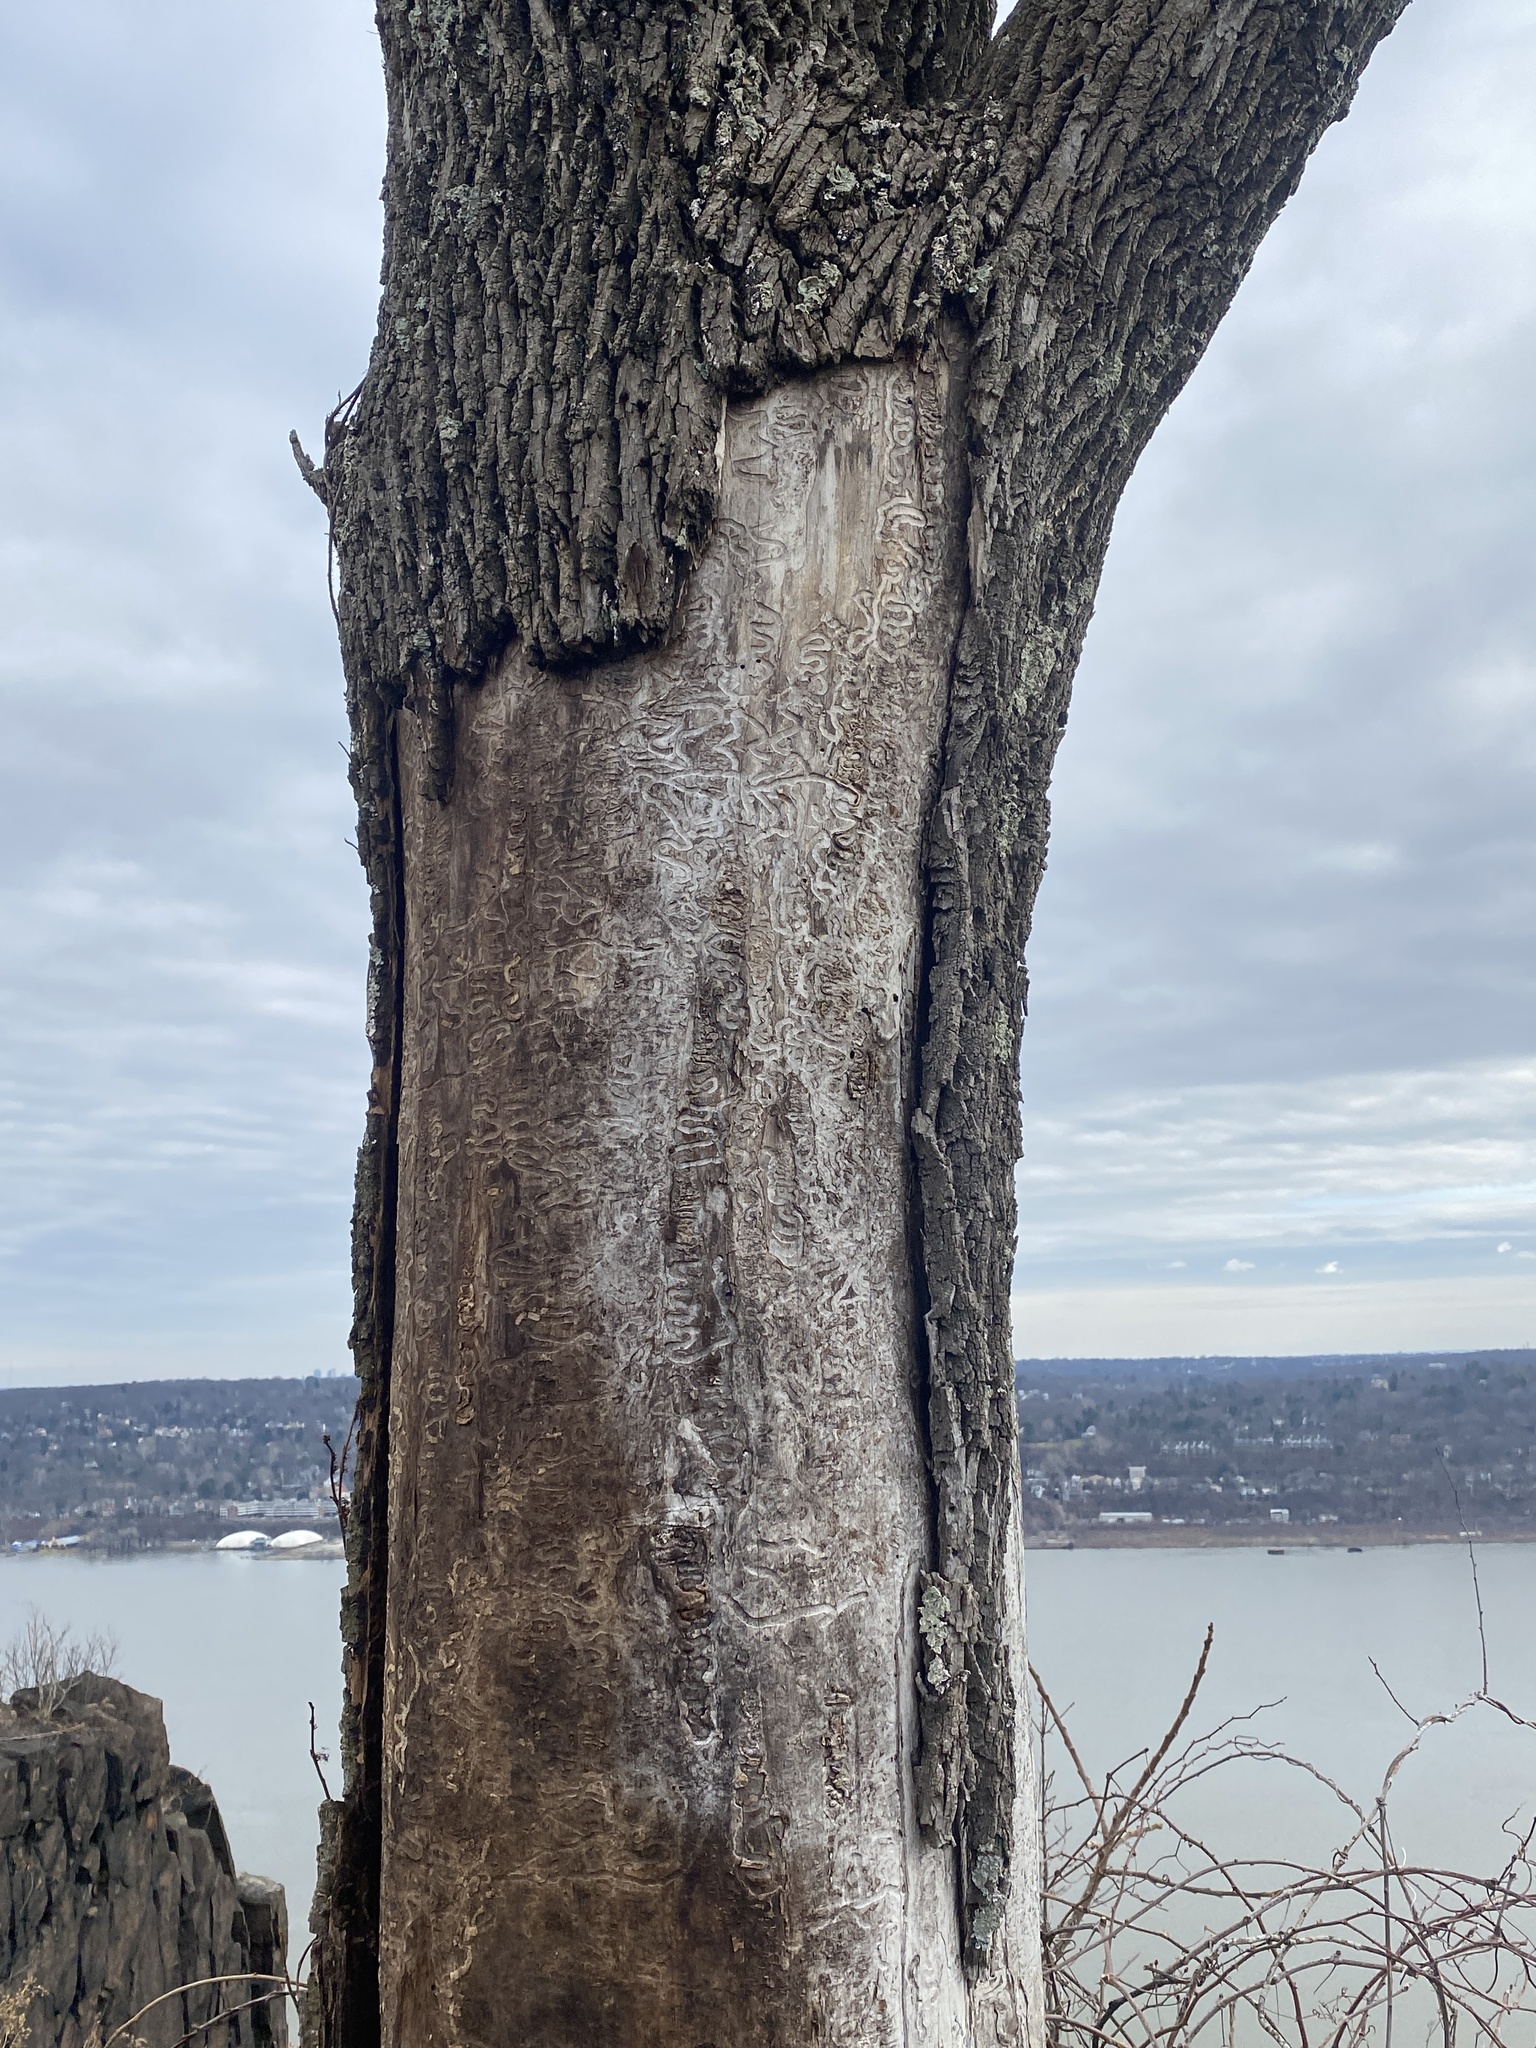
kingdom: Animalia
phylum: Arthropoda
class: Insecta
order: Coleoptera
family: Buprestidae
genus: Agrilus
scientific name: Agrilus planipennis
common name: Emerald ash borer
